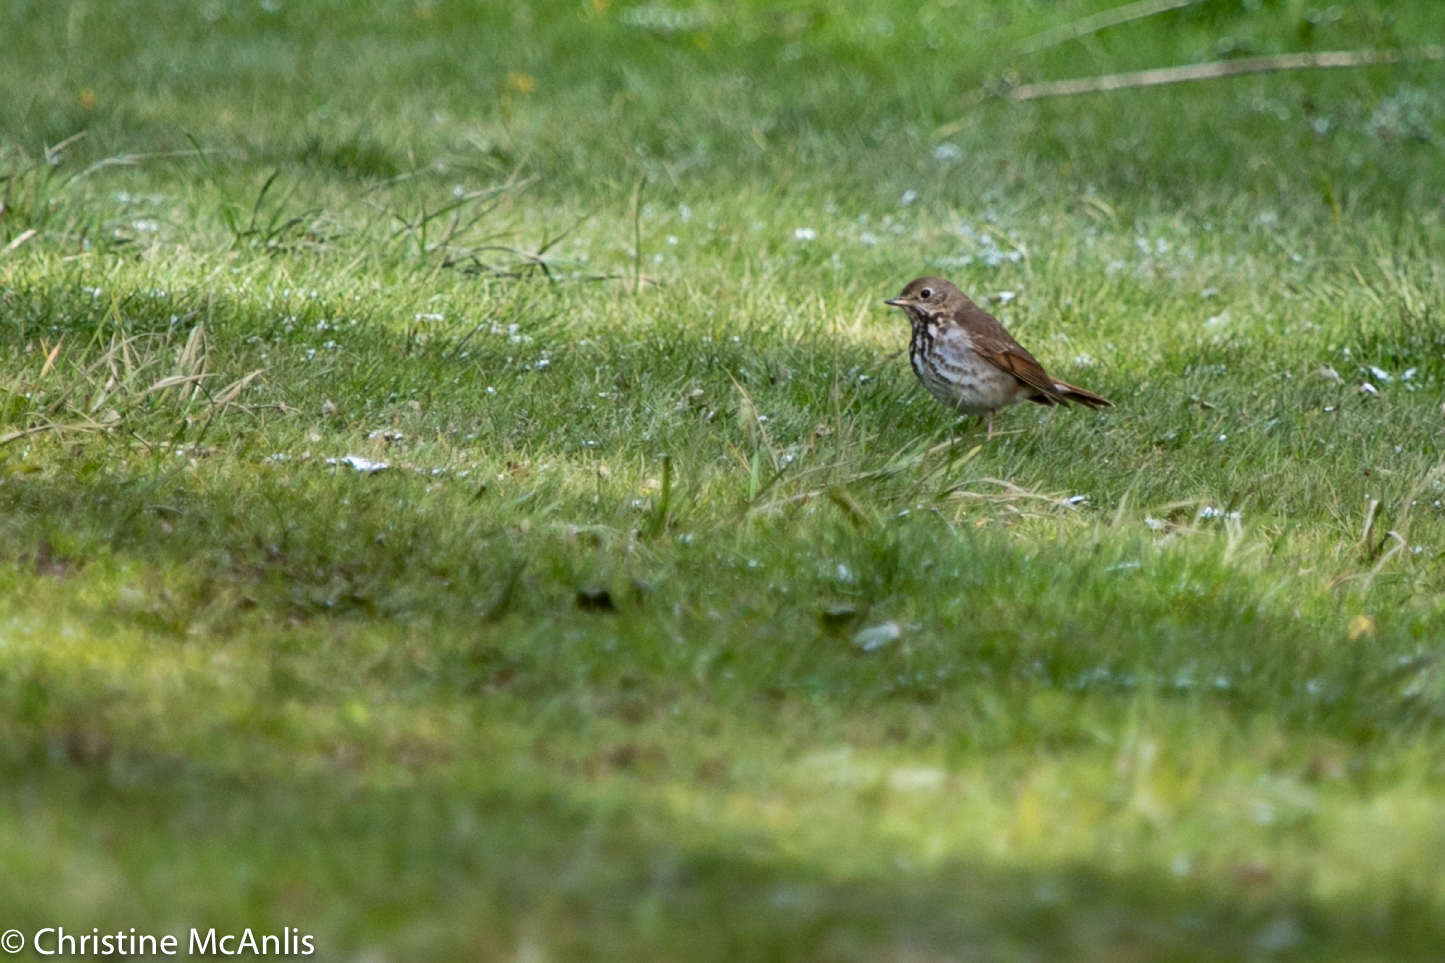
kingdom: Animalia
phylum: Chordata
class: Aves
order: Passeriformes
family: Turdidae
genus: Catharus
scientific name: Catharus guttatus
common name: Hermit thrush
